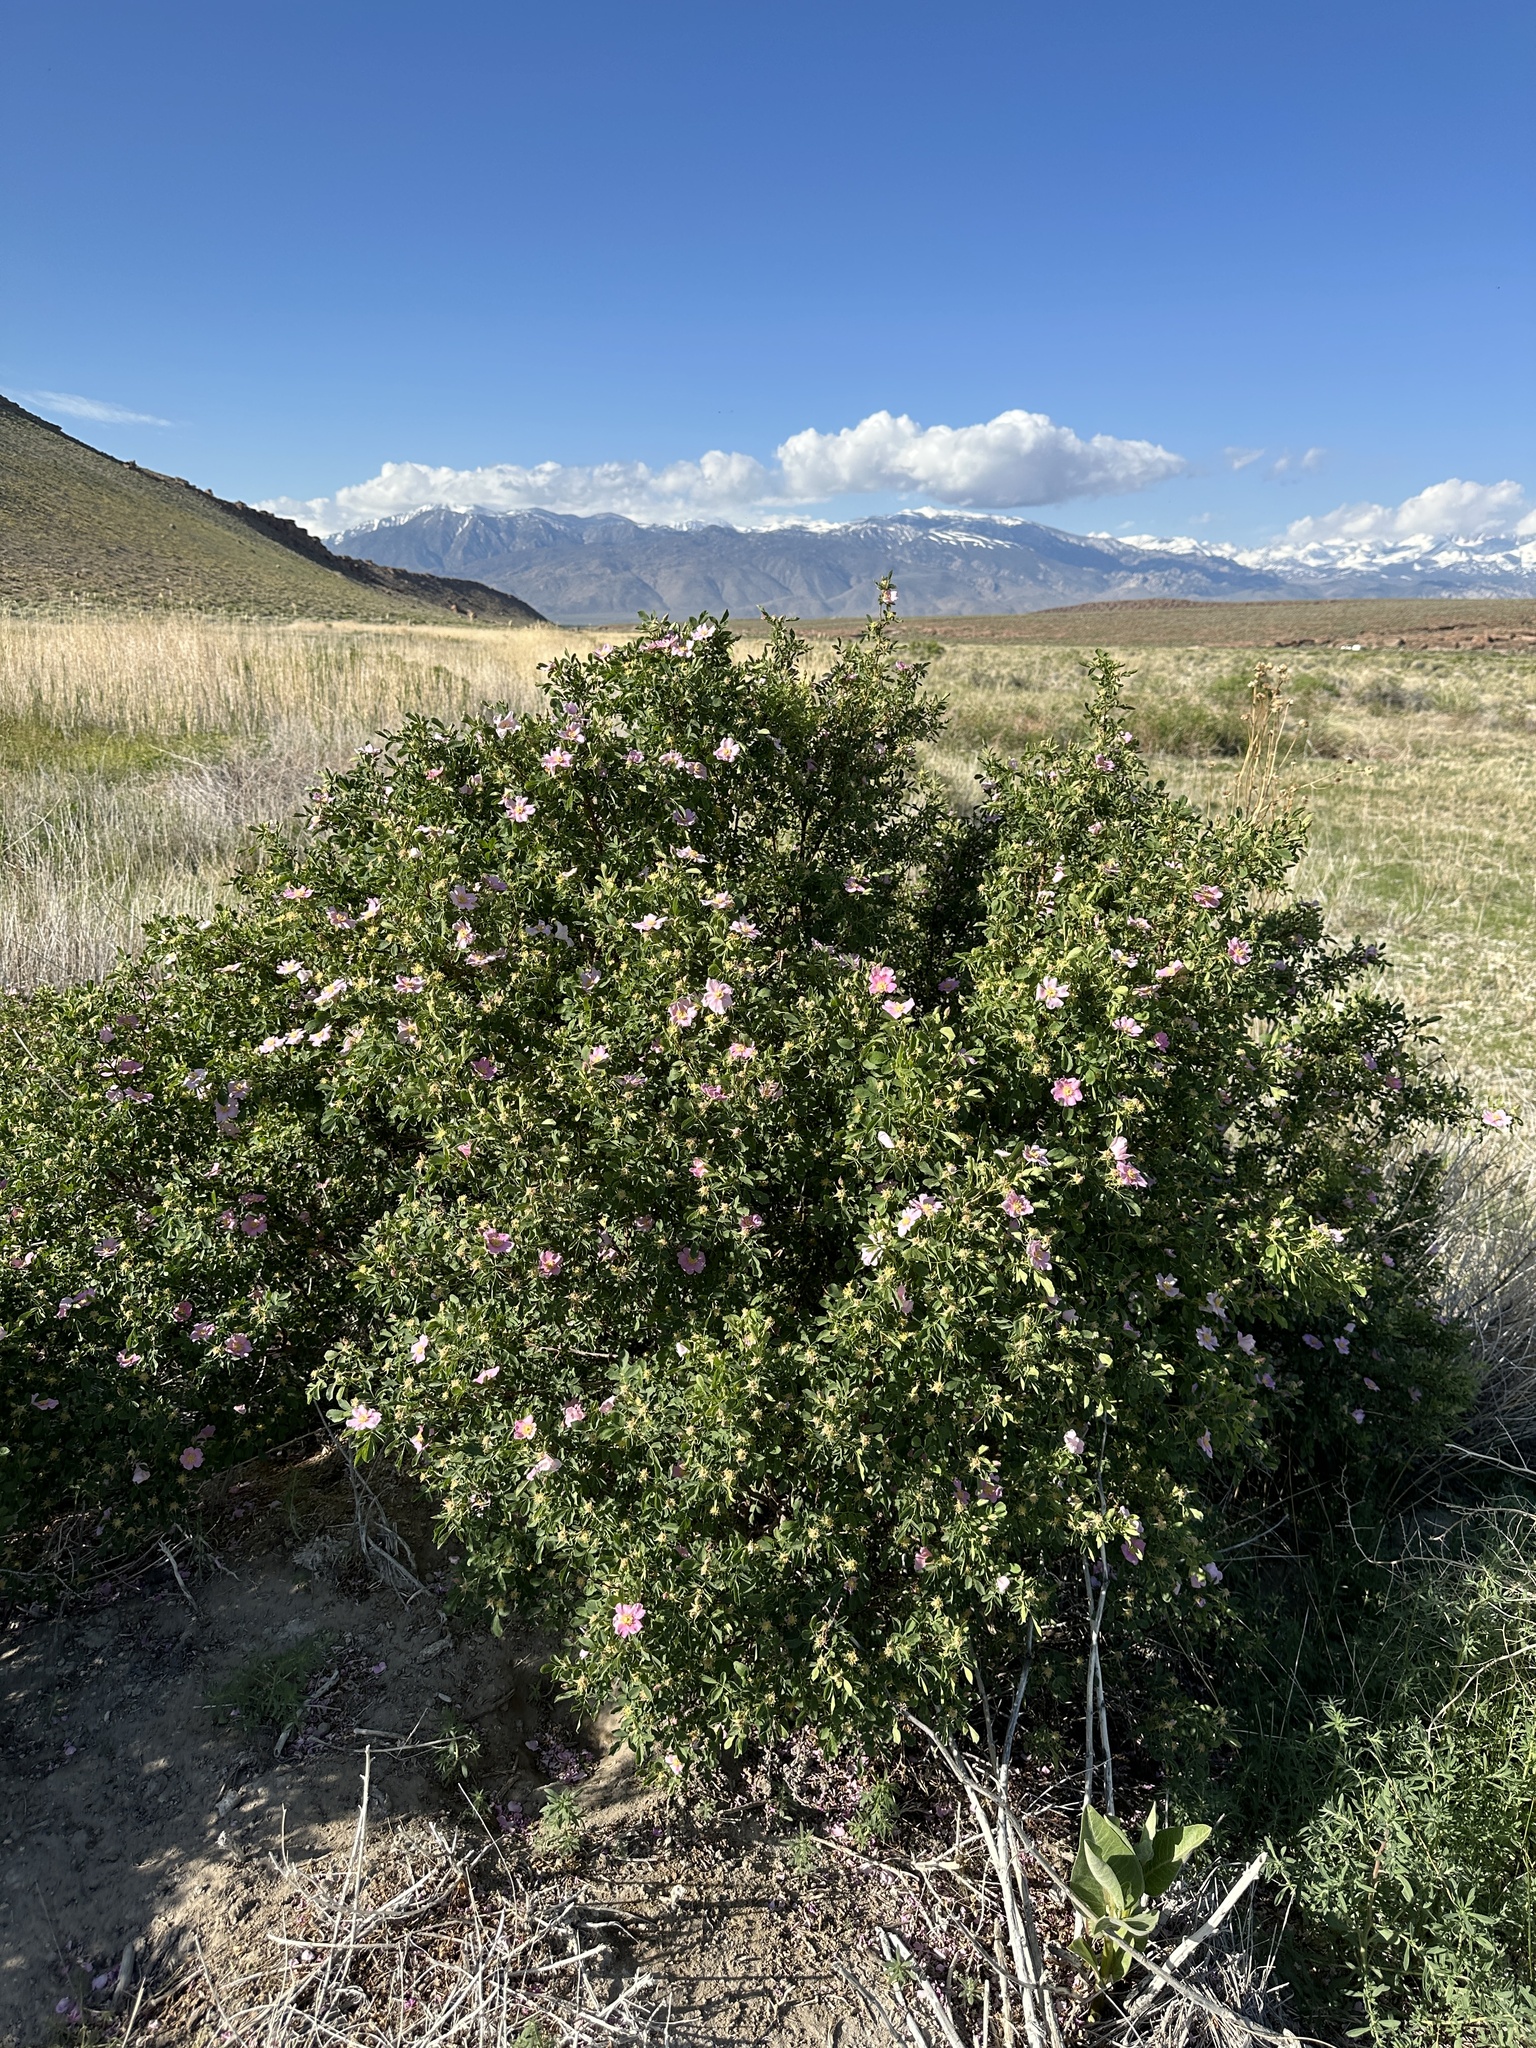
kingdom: Plantae
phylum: Tracheophyta
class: Magnoliopsida
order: Rosales
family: Rosaceae
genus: Rosa
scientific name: Rosa woodsii
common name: Woods's rose
